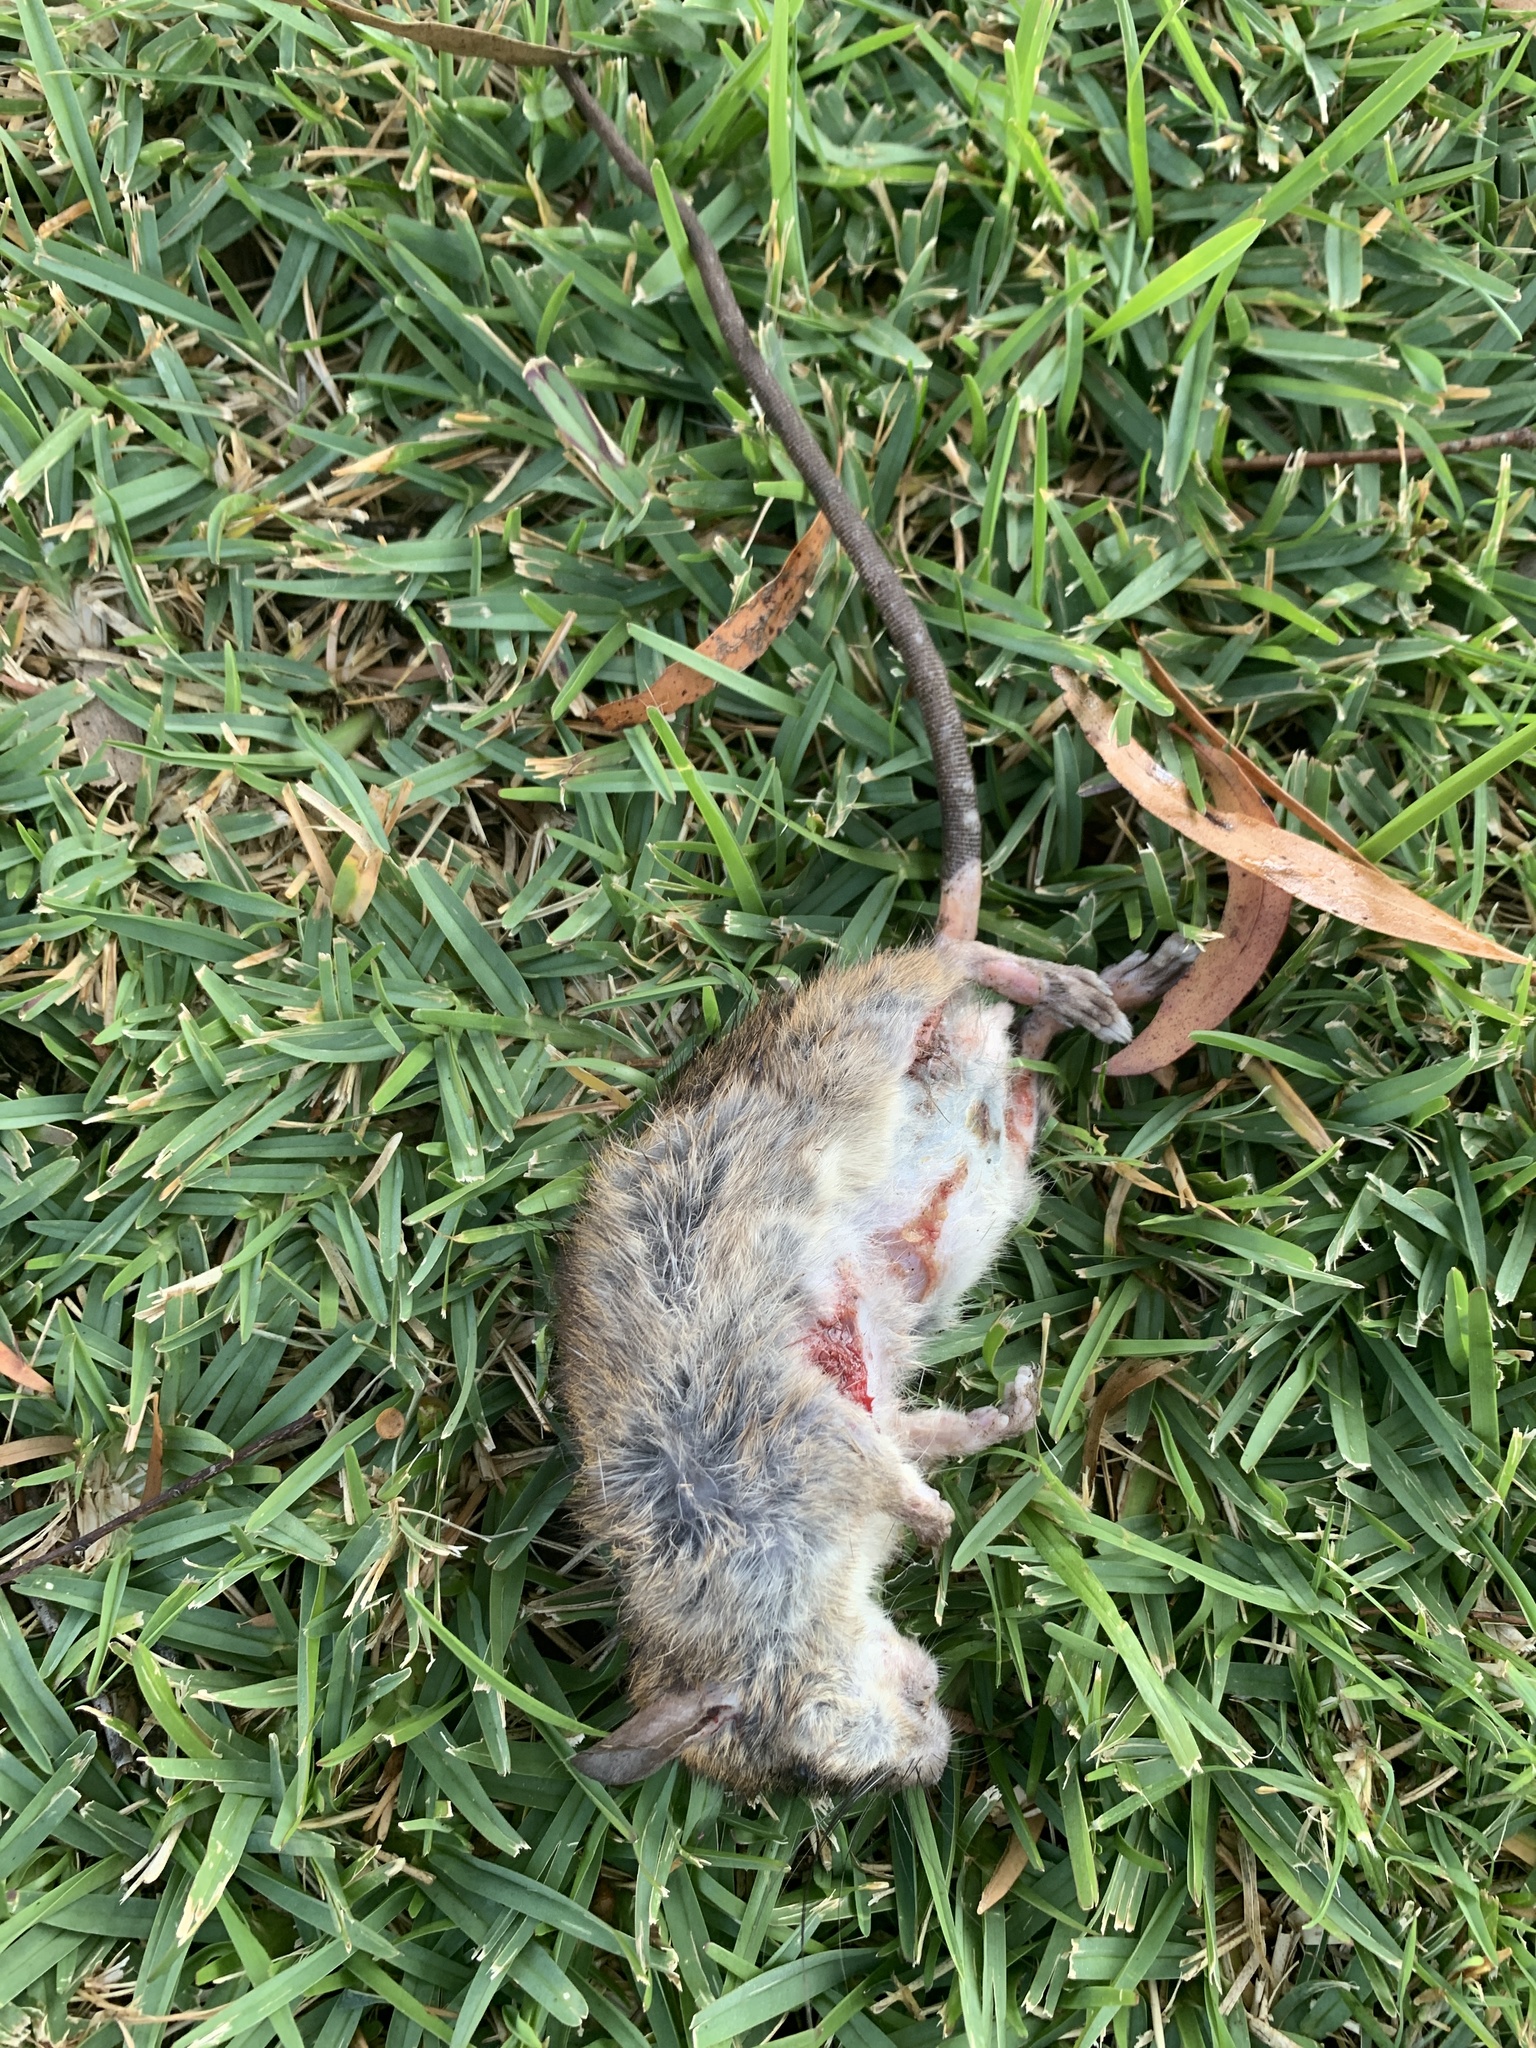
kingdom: Animalia
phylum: Chordata
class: Mammalia
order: Rodentia
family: Muridae
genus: Rattus
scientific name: Rattus rattus
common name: Black rat
